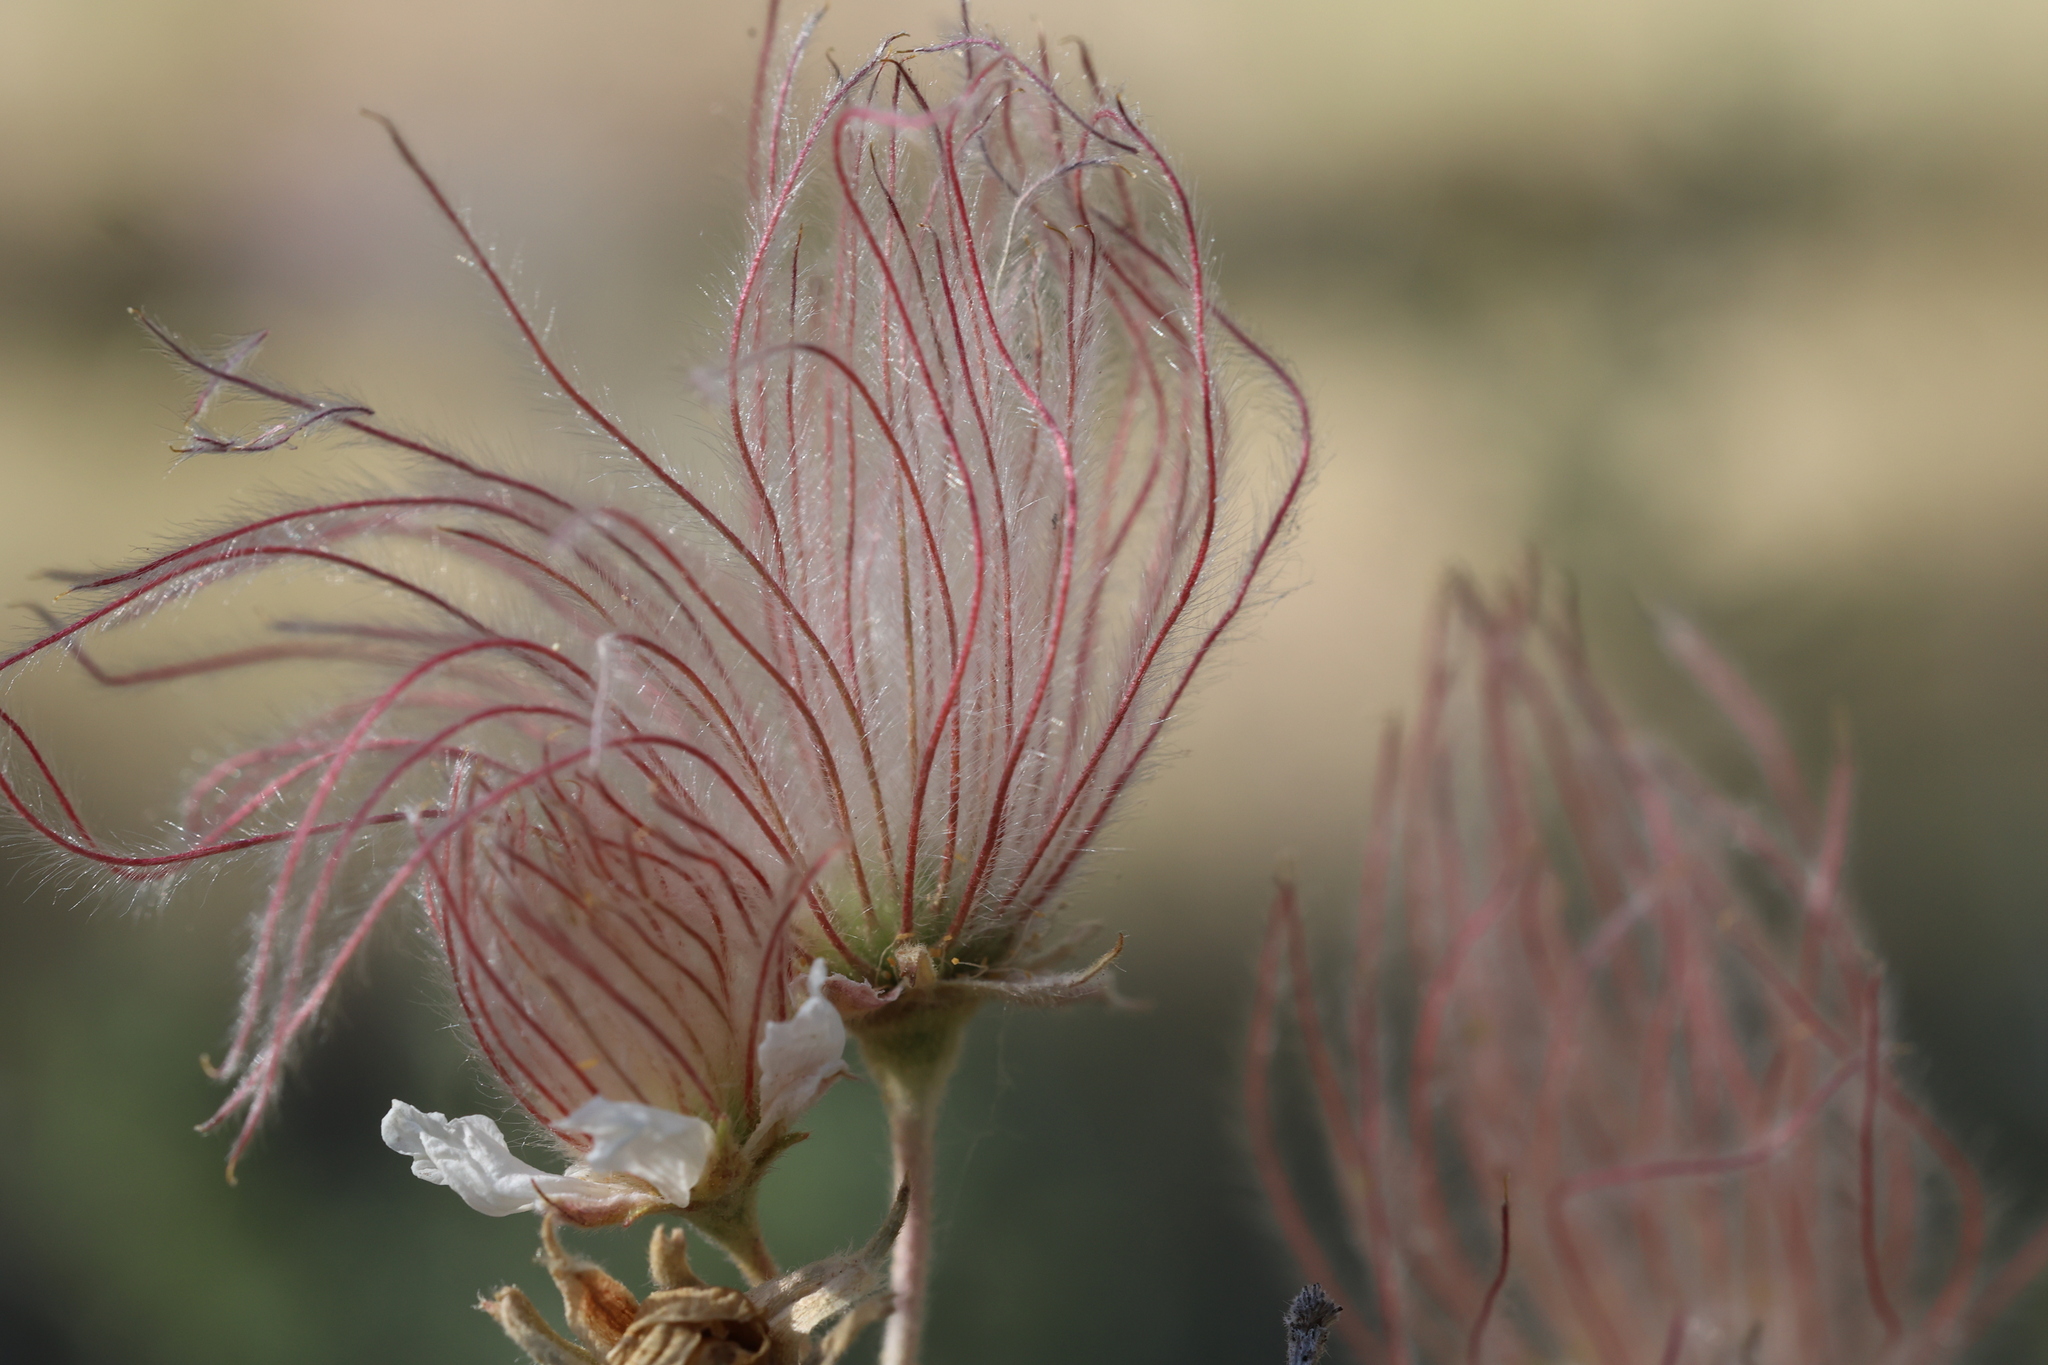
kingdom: Plantae
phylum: Tracheophyta
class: Magnoliopsida
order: Rosales
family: Rosaceae
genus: Fallugia
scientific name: Fallugia paradoxa
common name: Apache-plume
